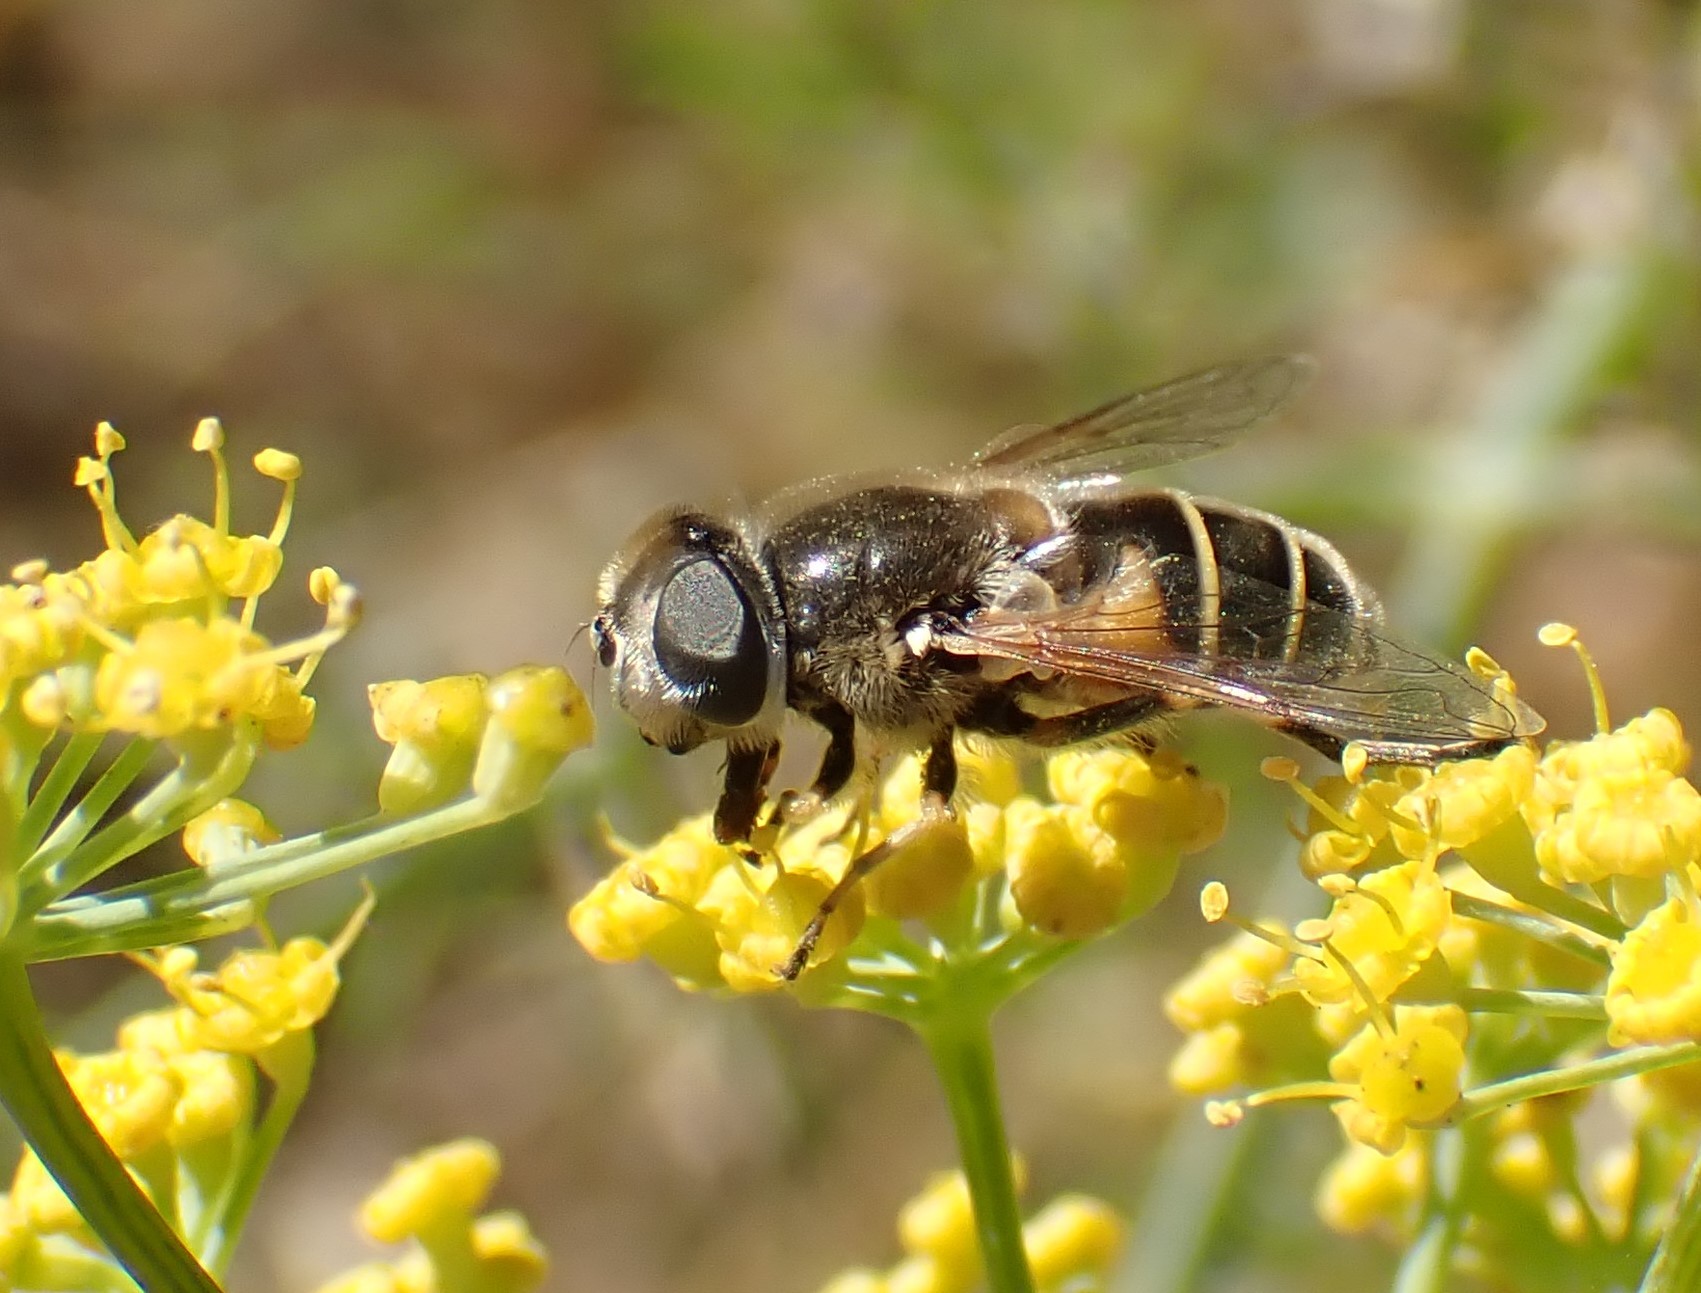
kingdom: Animalia
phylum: Arthropoda
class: Insecta
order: Diptera
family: Syrphidae
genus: Eristalis
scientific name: Eristalis hirta
